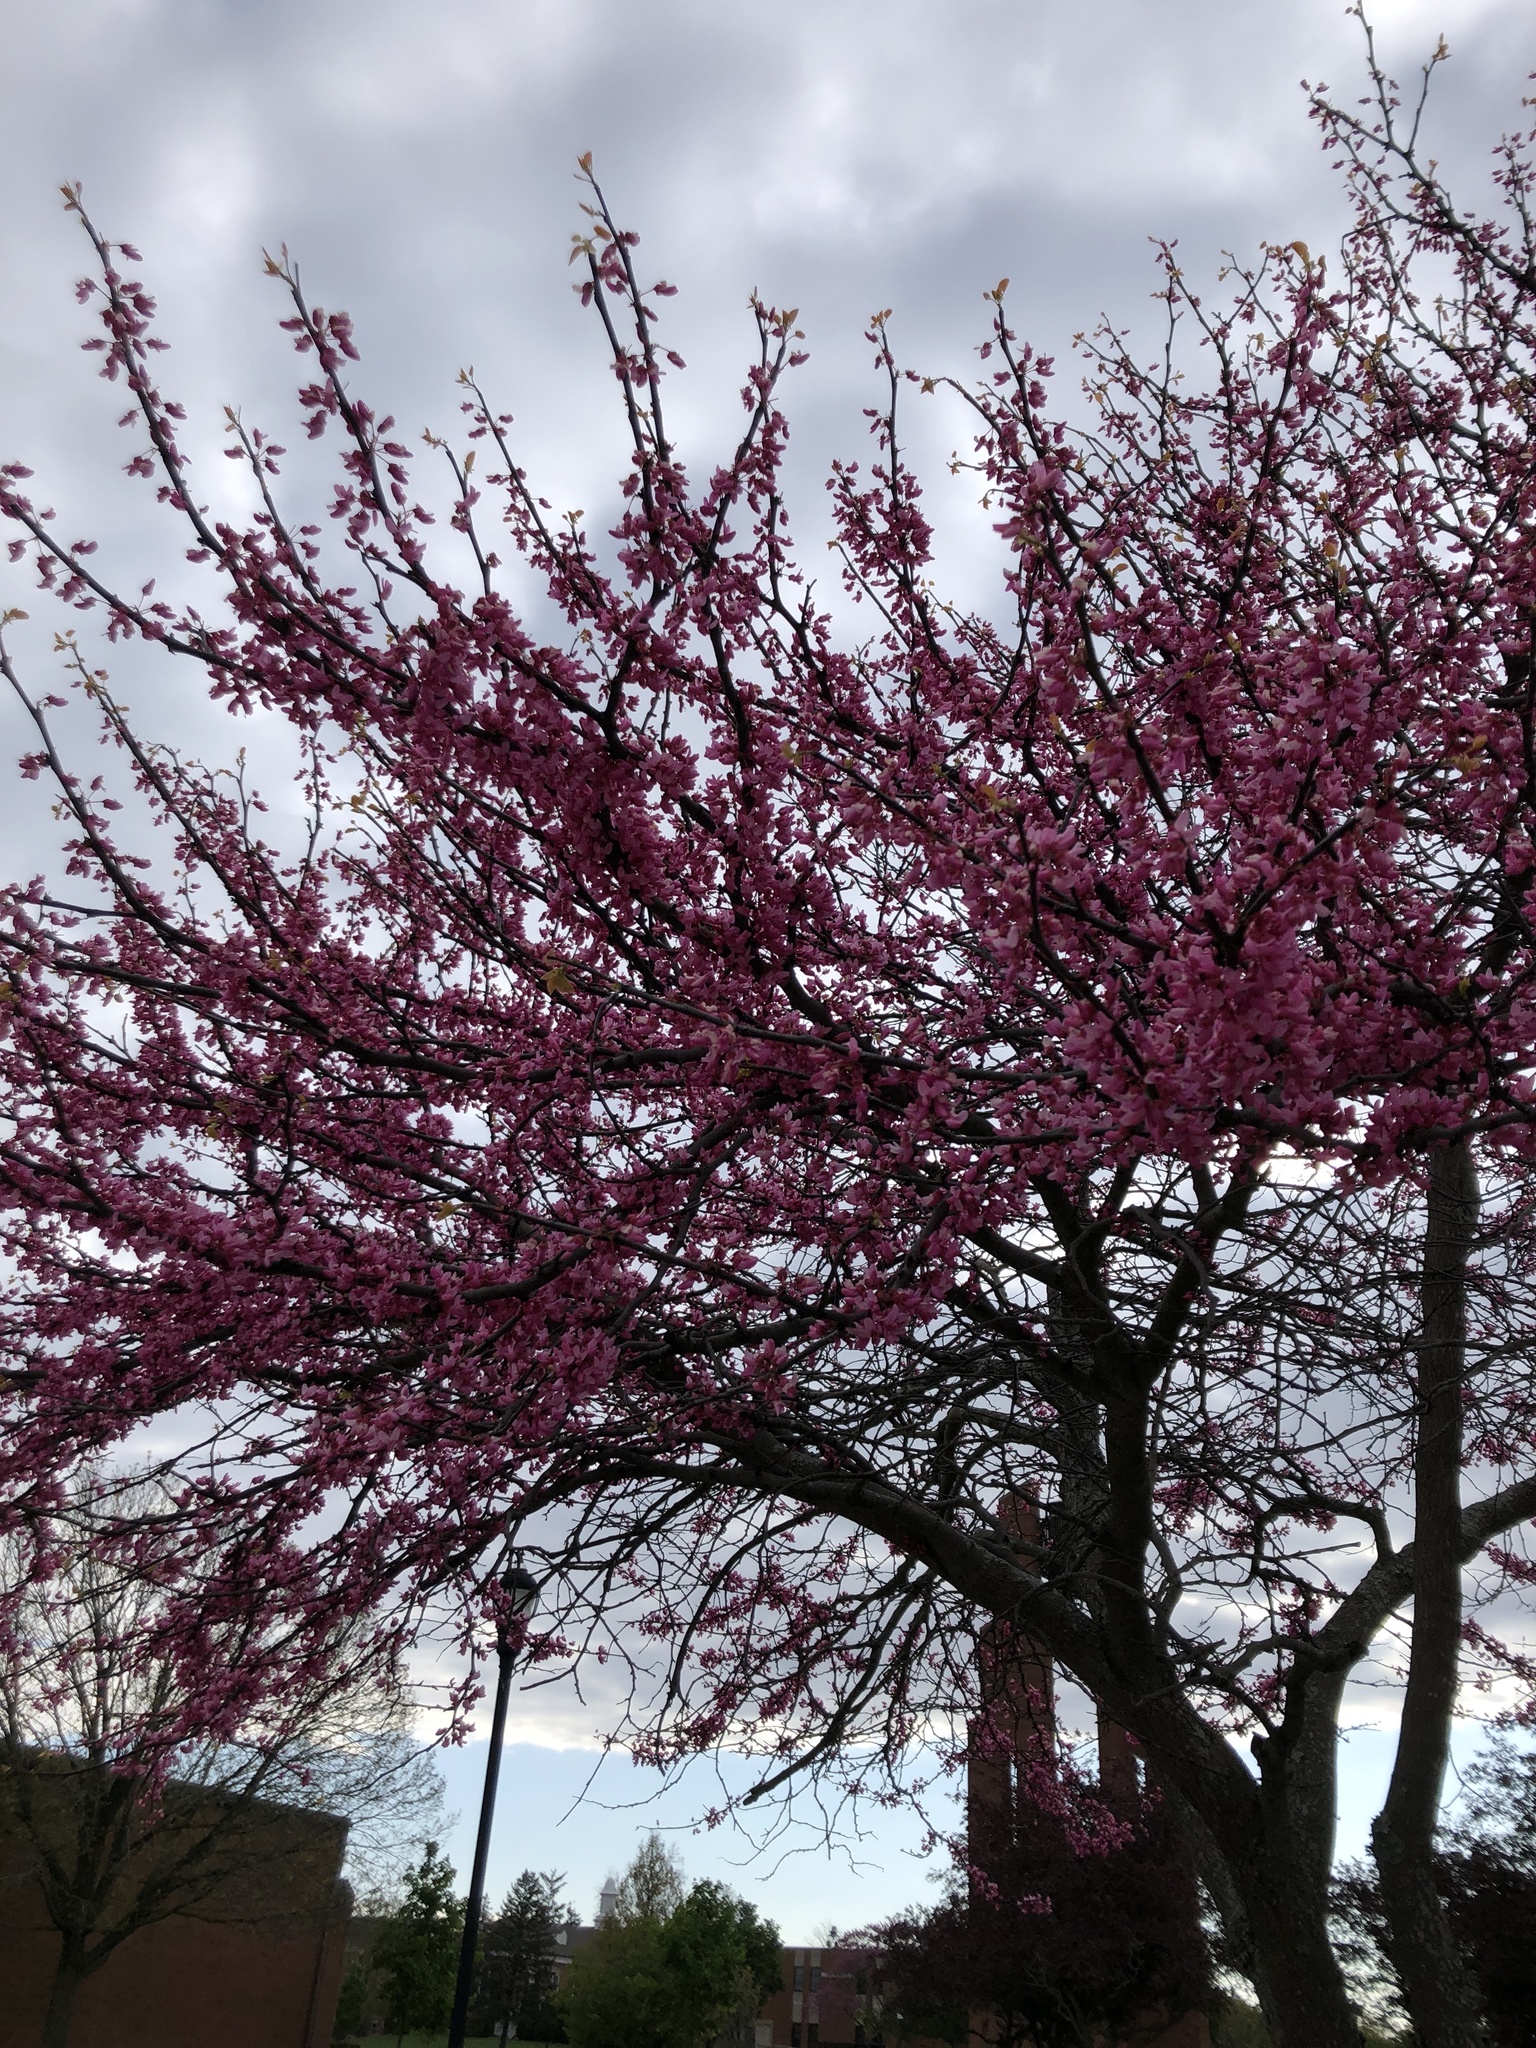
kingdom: Plantae
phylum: Tracheophyta
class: Magnoliopsida
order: Fabales
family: Fabaceae
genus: Cercis
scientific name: Cercis canadensis
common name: Eastern redbud
